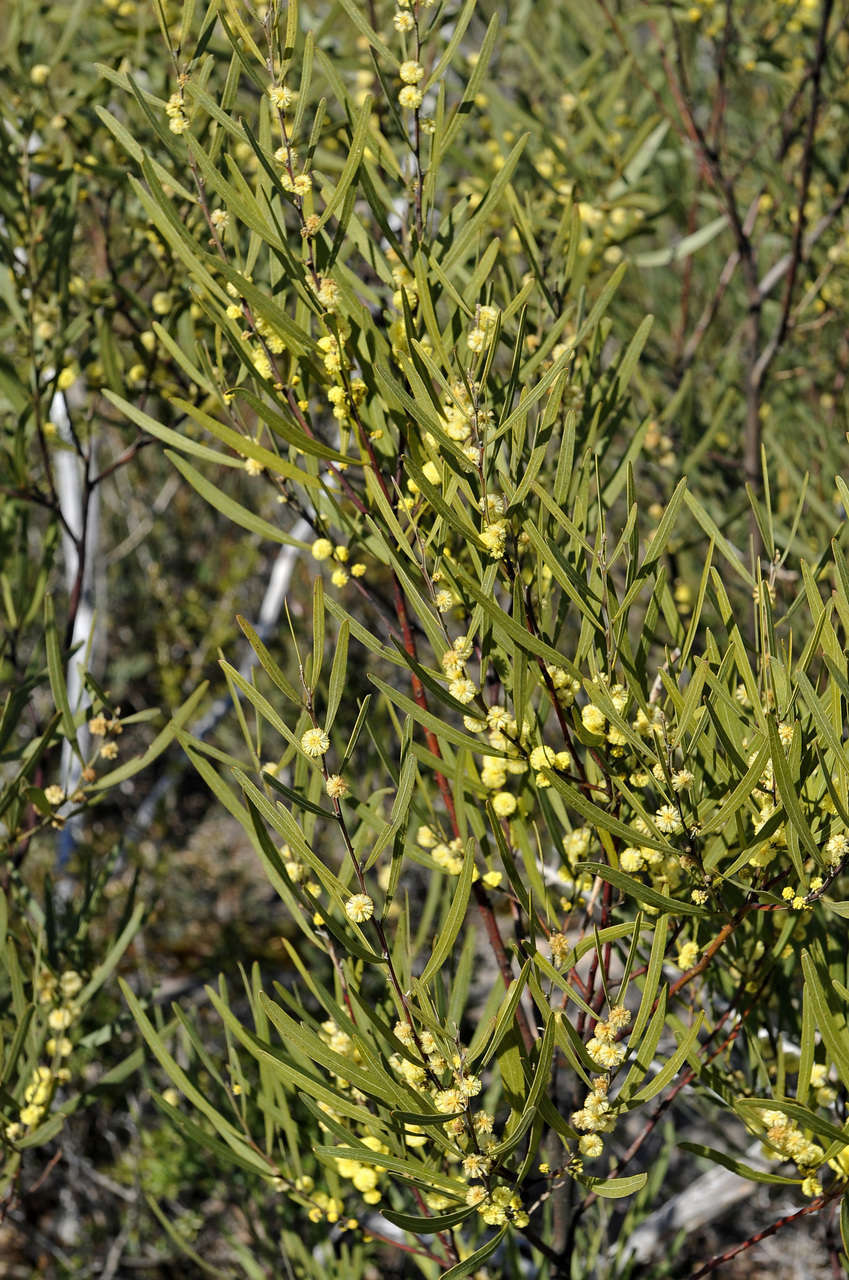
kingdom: Plantae
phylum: Tracheophyta
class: Magnoliopsida
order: Fabales
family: Fabaceae
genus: Acacia
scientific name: Acacia stricta
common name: Hop wattle
